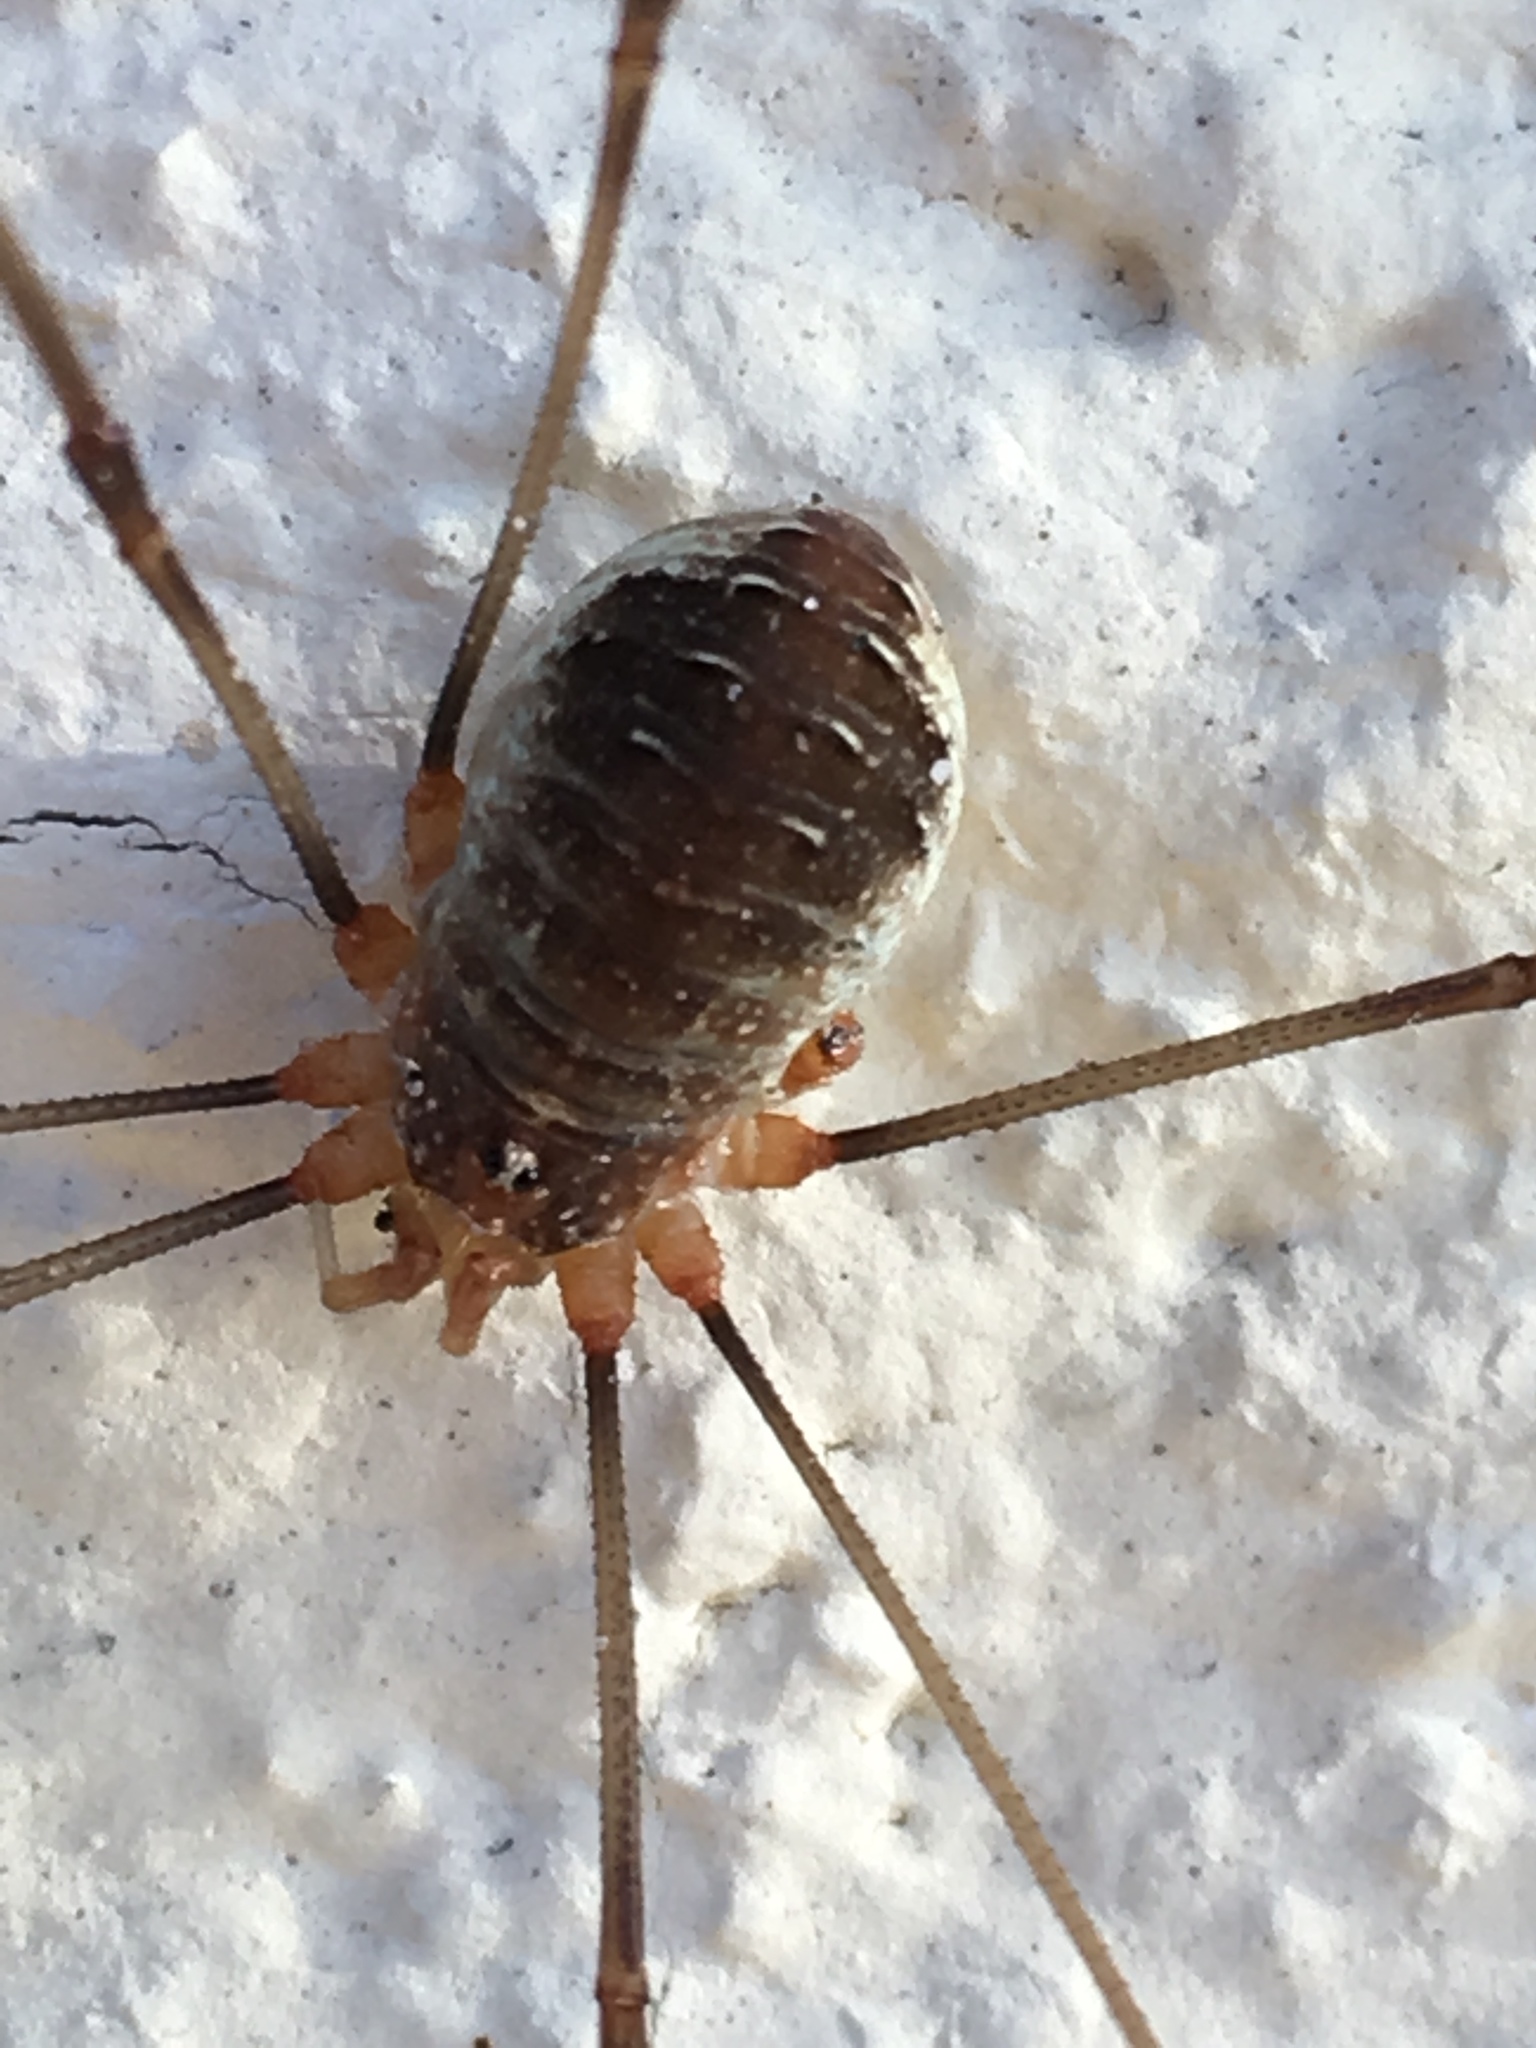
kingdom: Animalia
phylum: Arthropoda
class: Arachnida
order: Opiliones
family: Phalangiidae
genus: Opilio
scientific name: Opilio canestrinii
